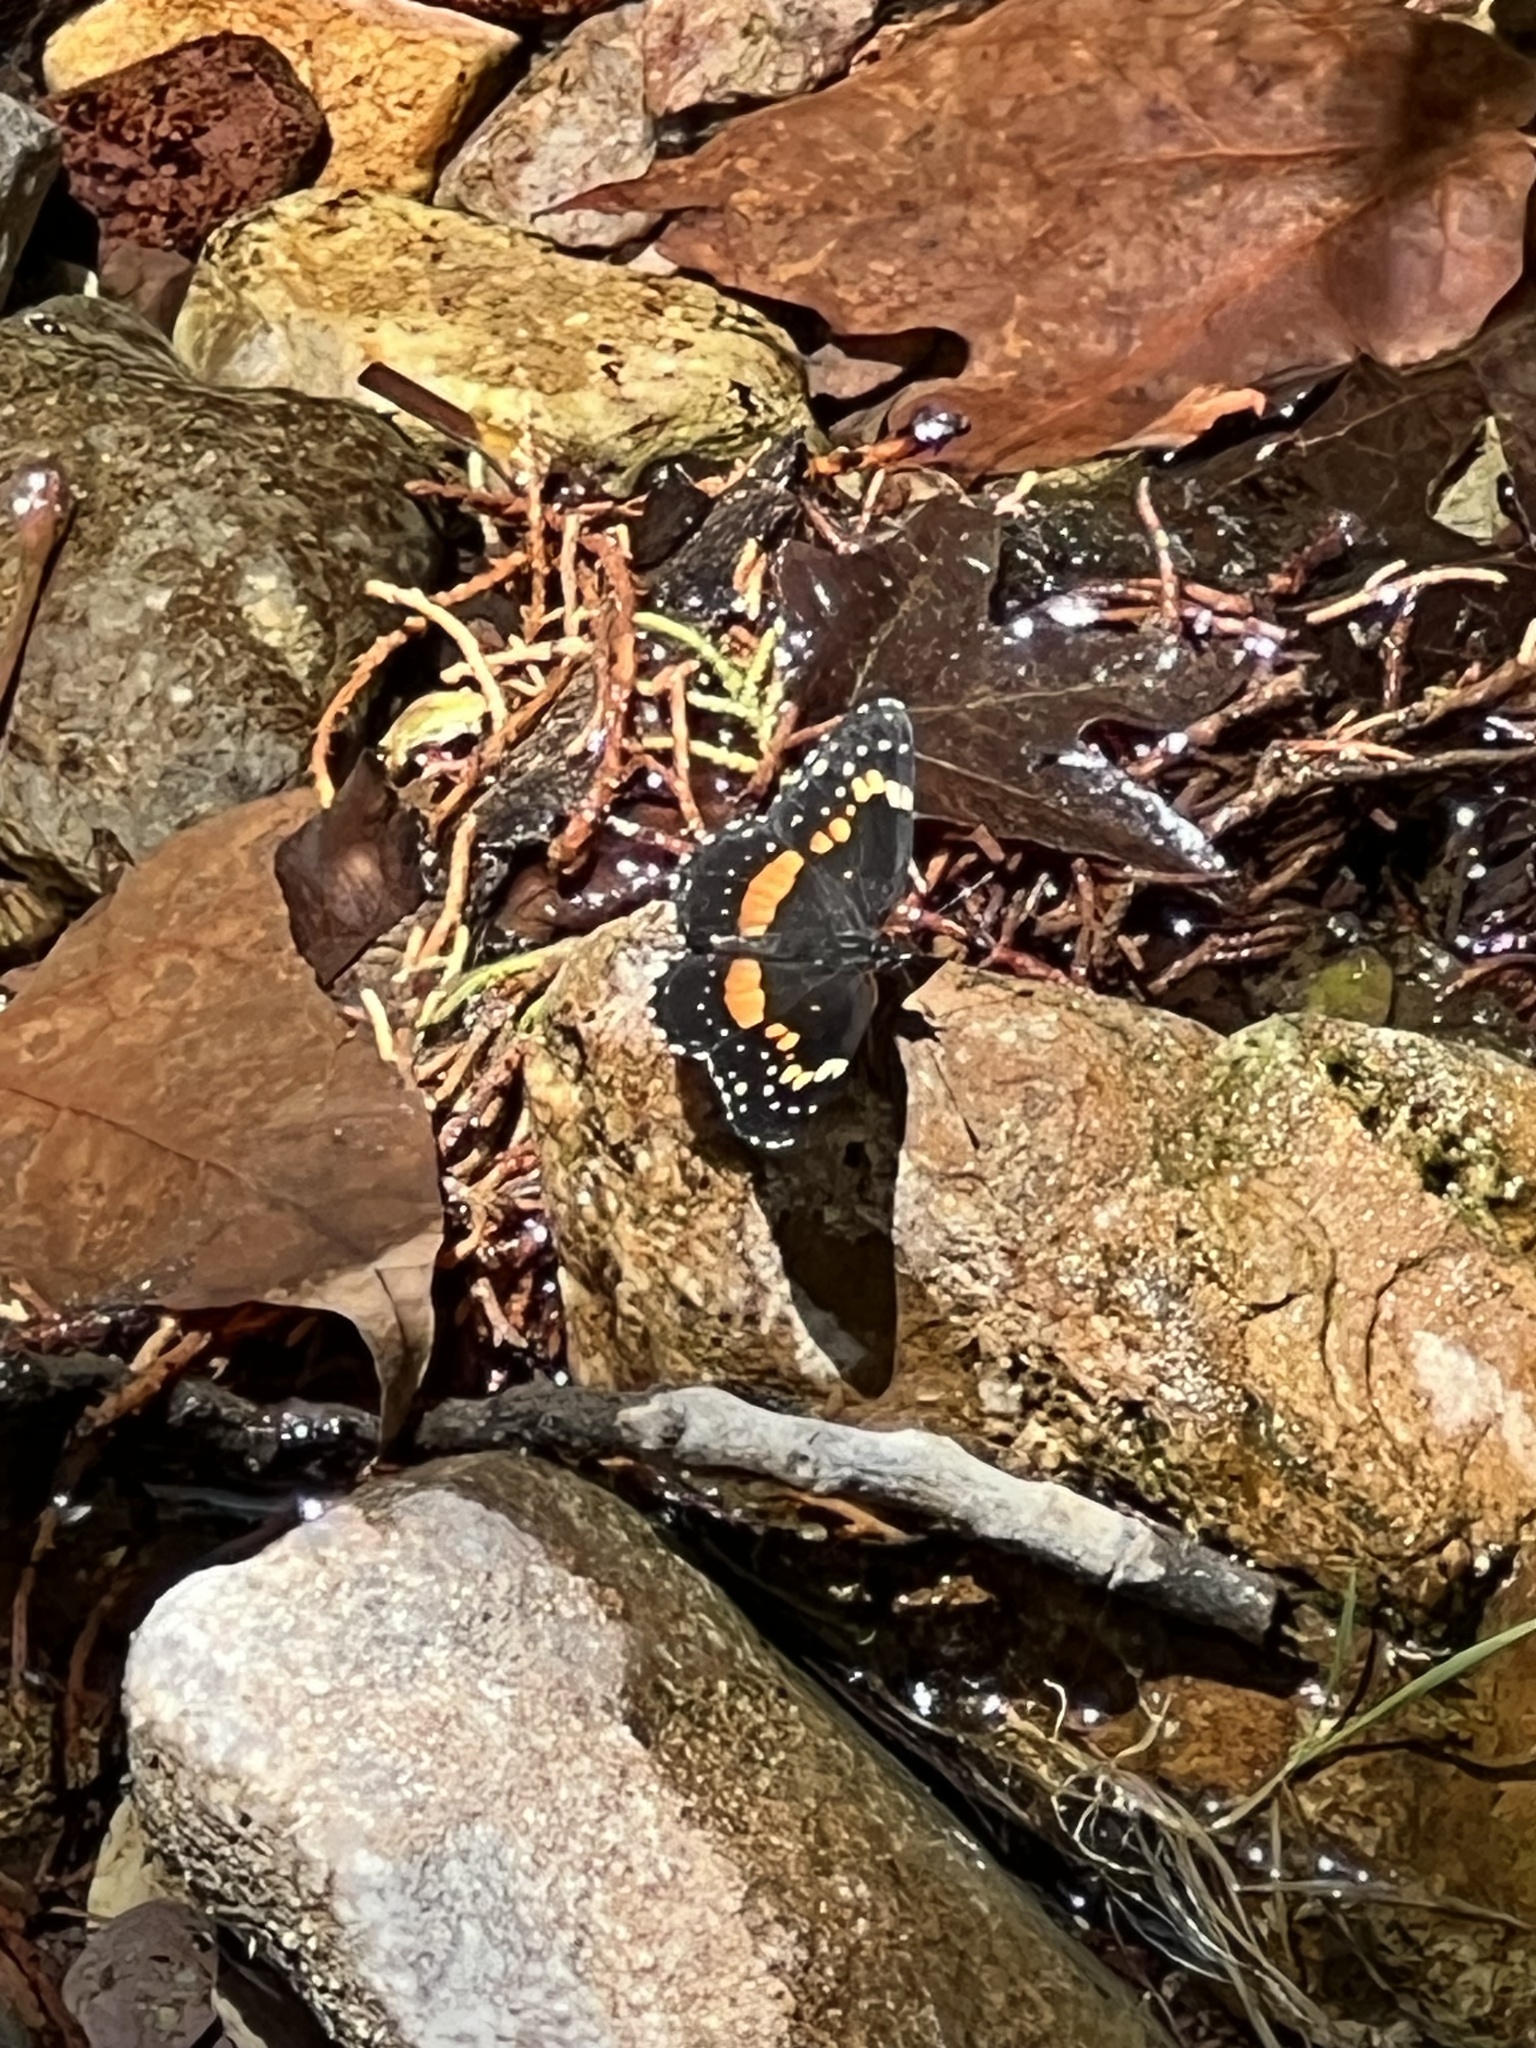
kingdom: Animalia
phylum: Arthropoda
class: Insecta
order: Lepidoptera
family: Nymphalidae
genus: Chlosyne
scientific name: Chlosyne lacinia
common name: Bordered patch
